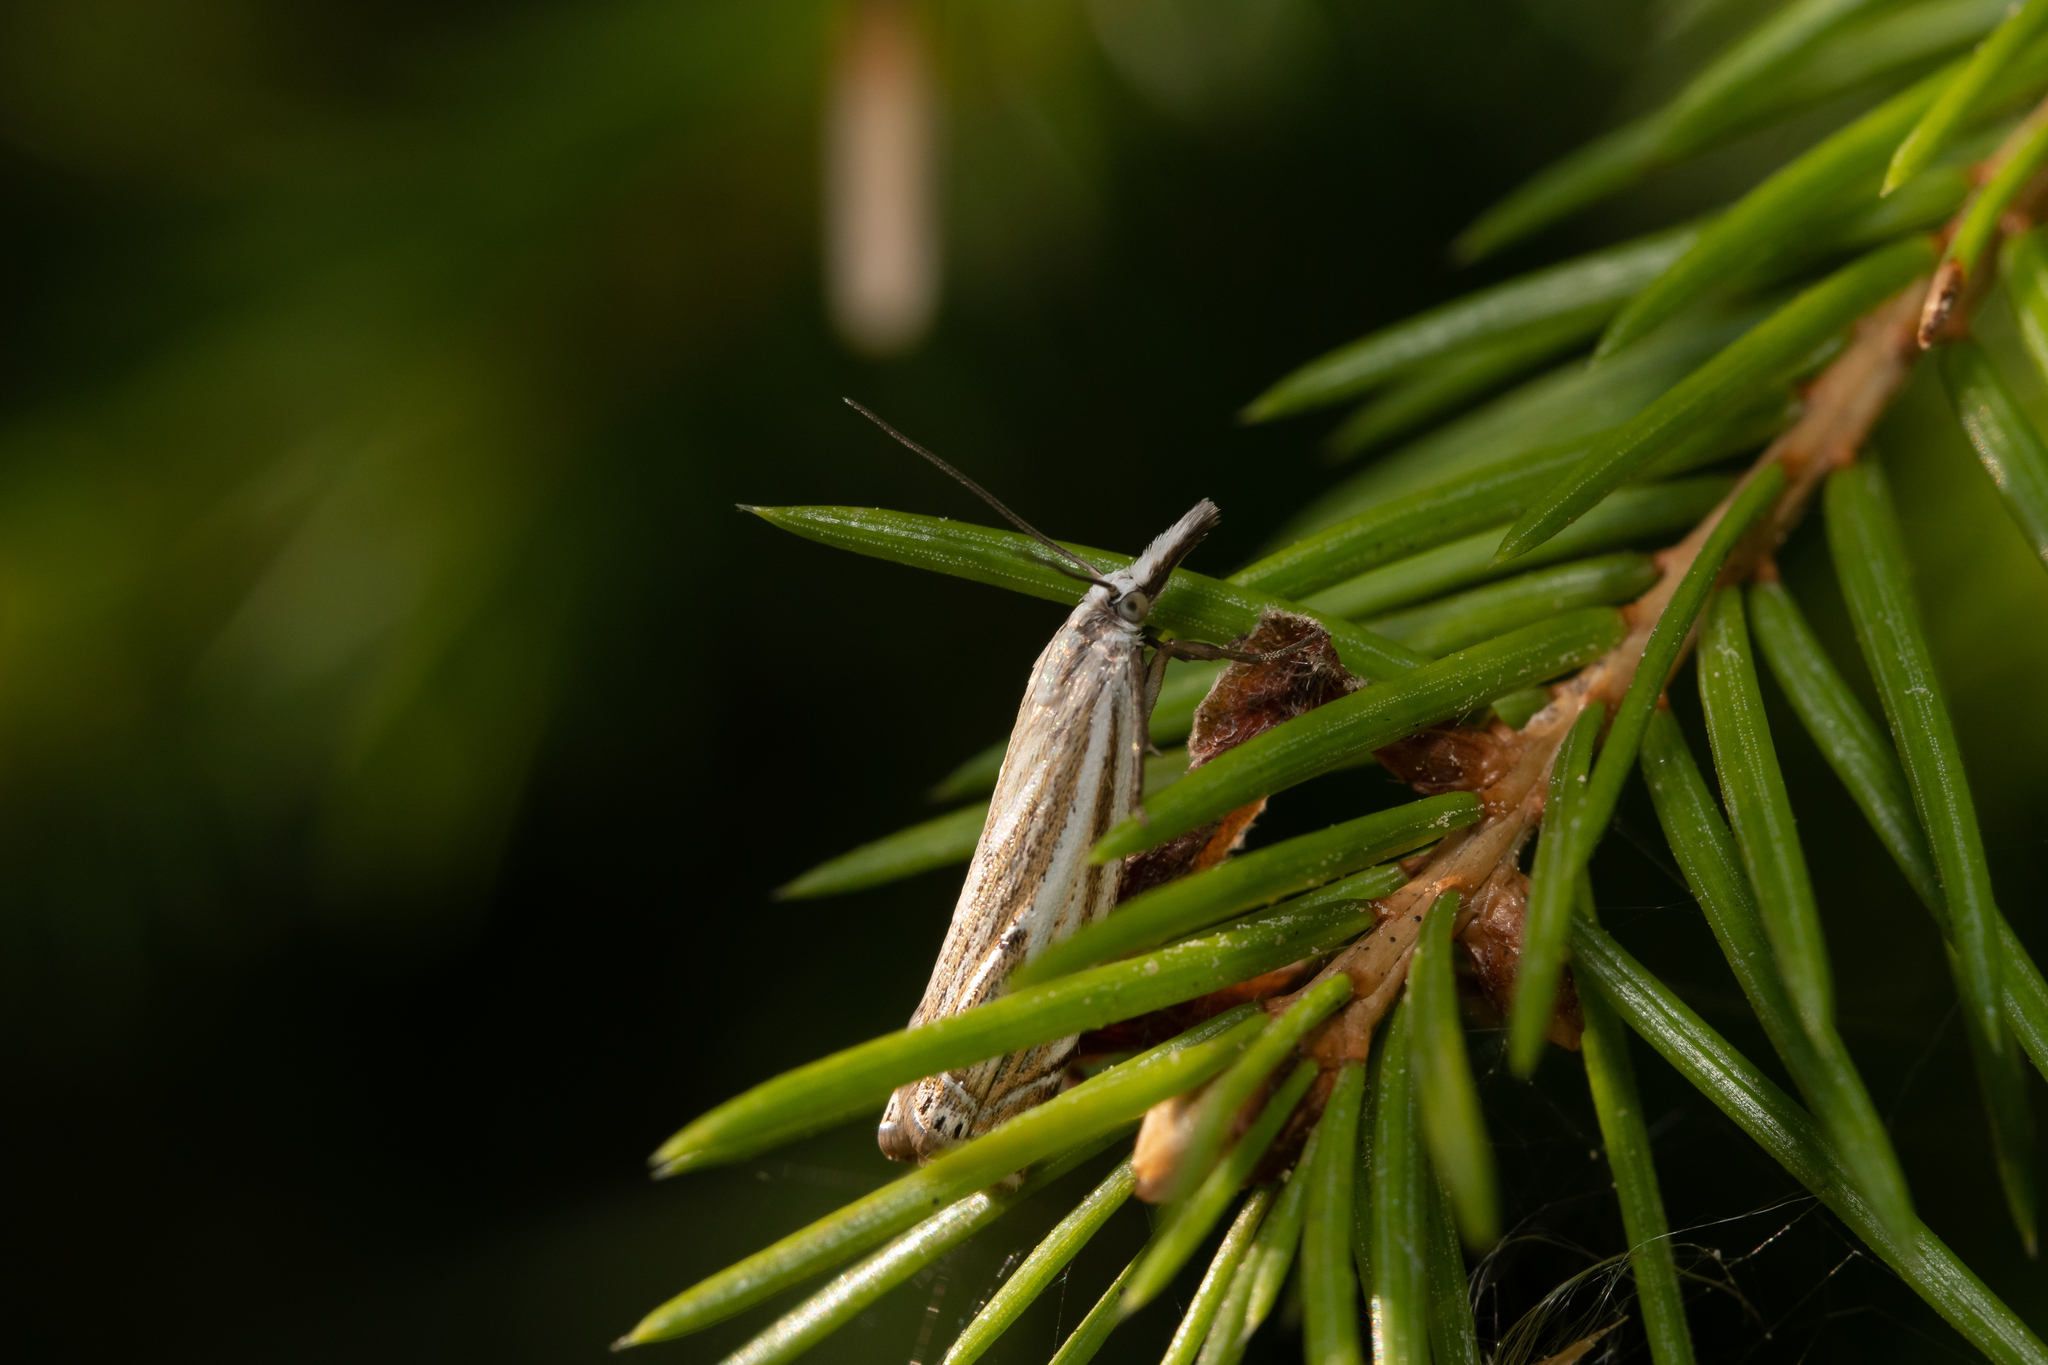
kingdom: Animalia
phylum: Arthropoda
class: Insecta
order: Lepidoptera
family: Crambidae
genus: Crambus
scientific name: Crambus nemorella
